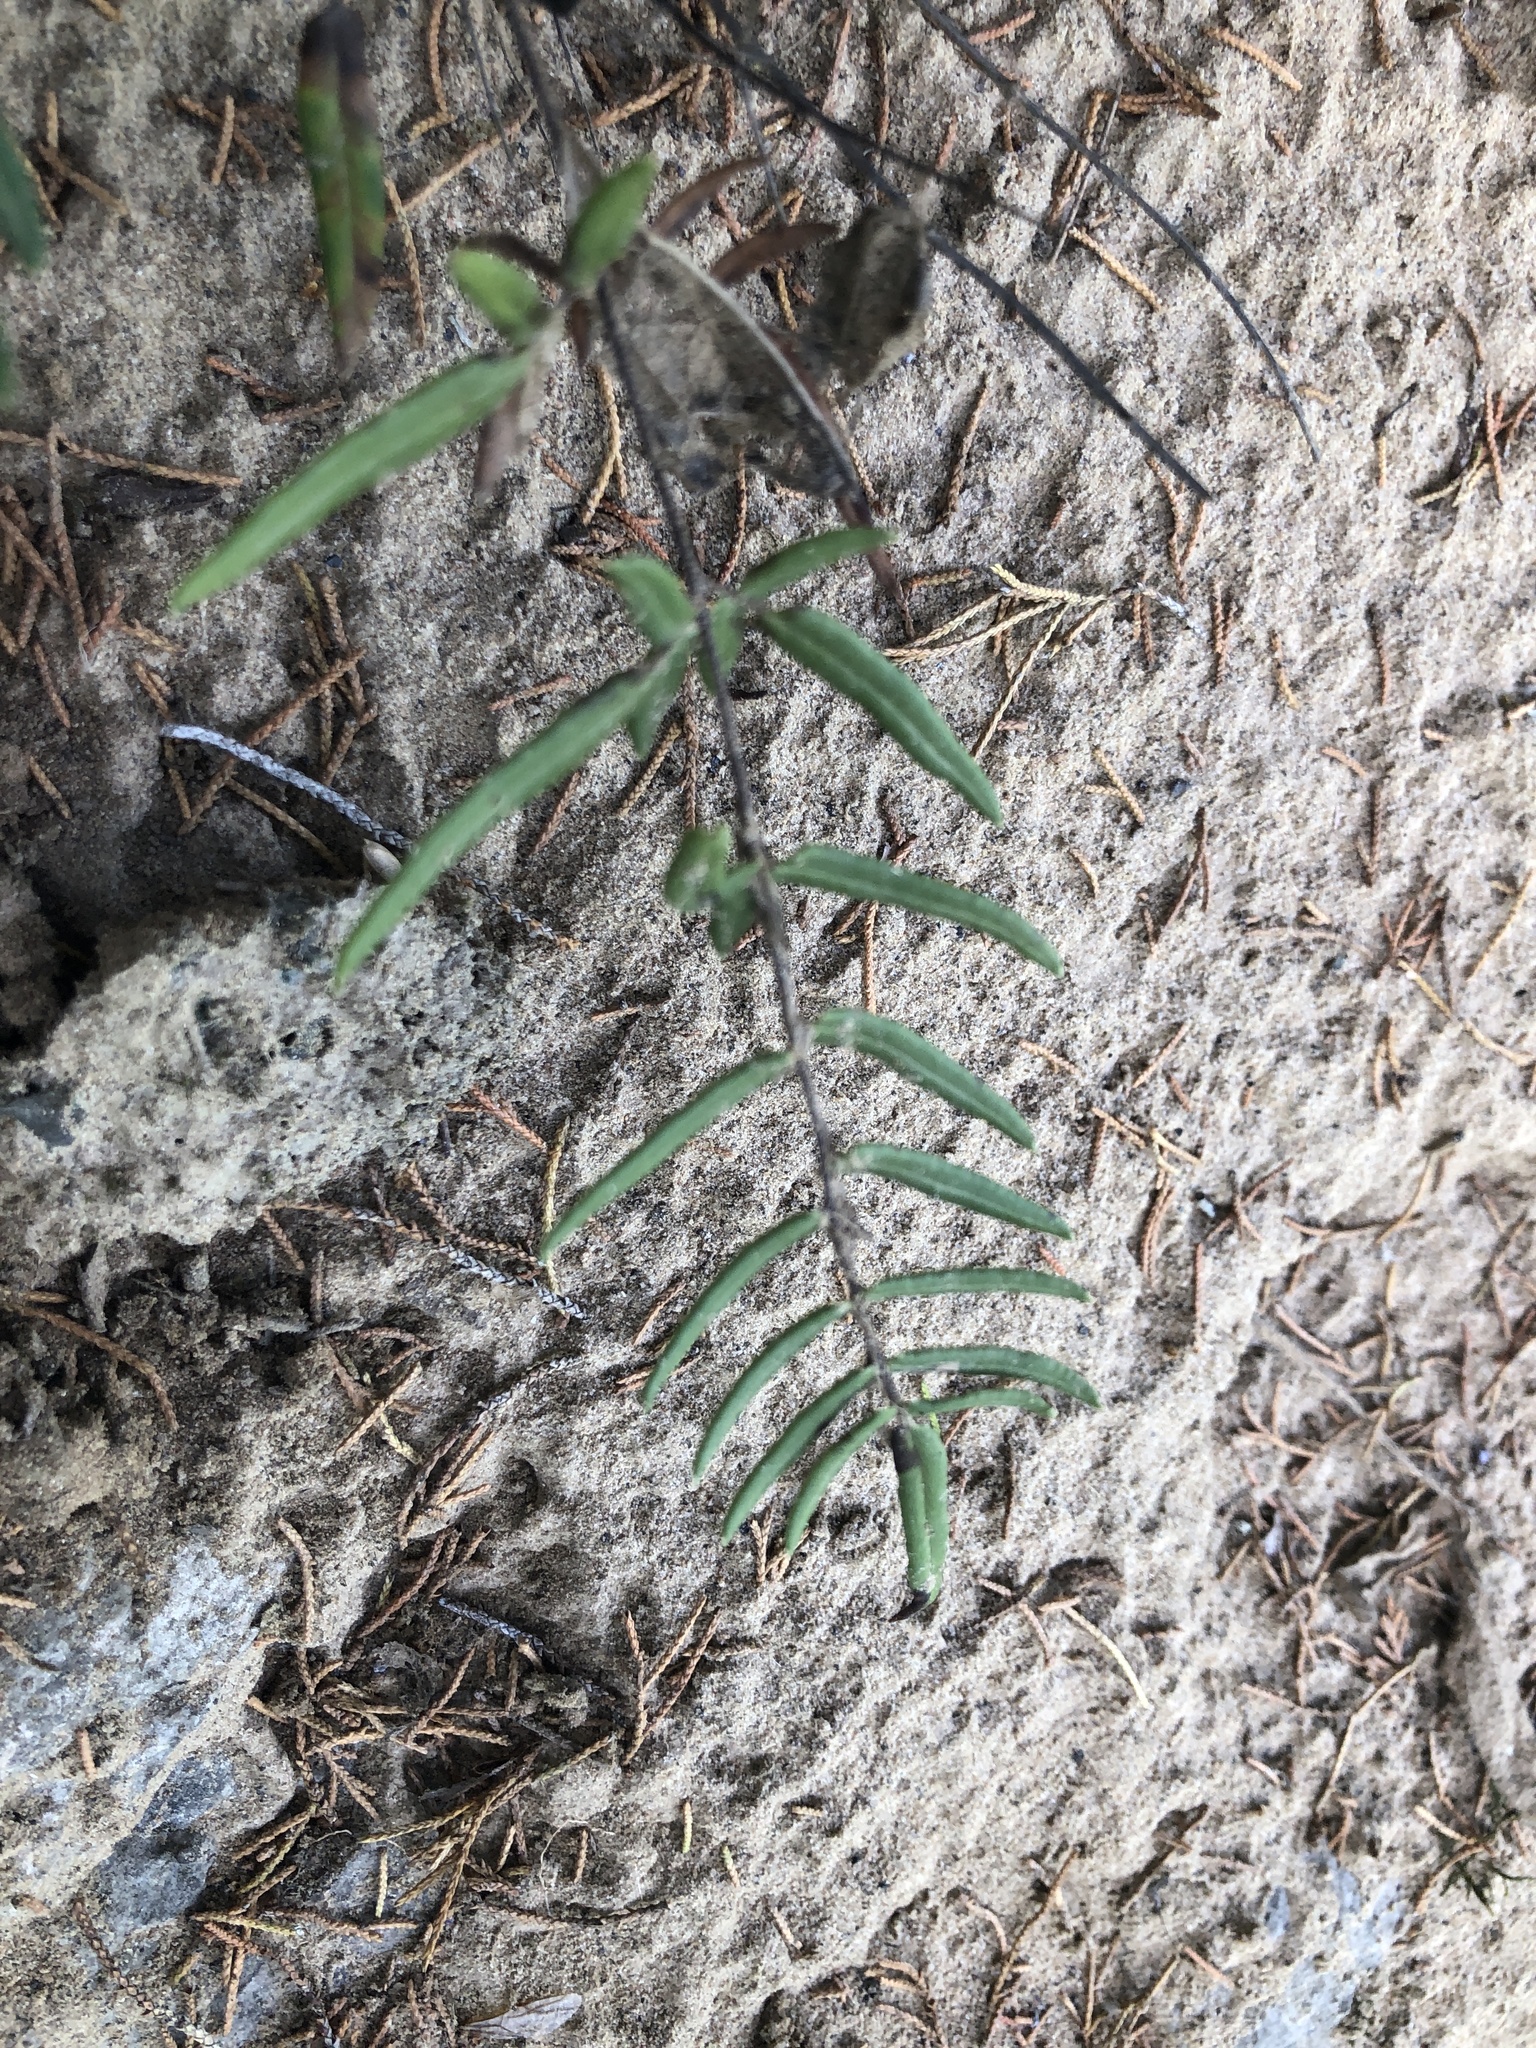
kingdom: Plantae
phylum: Tracheophyta
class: Polypodiopsida
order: Polypodiales
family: Pteridaceae
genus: Pellaea
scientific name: Pellaea atropurpurea
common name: Hairy cliffbrake
